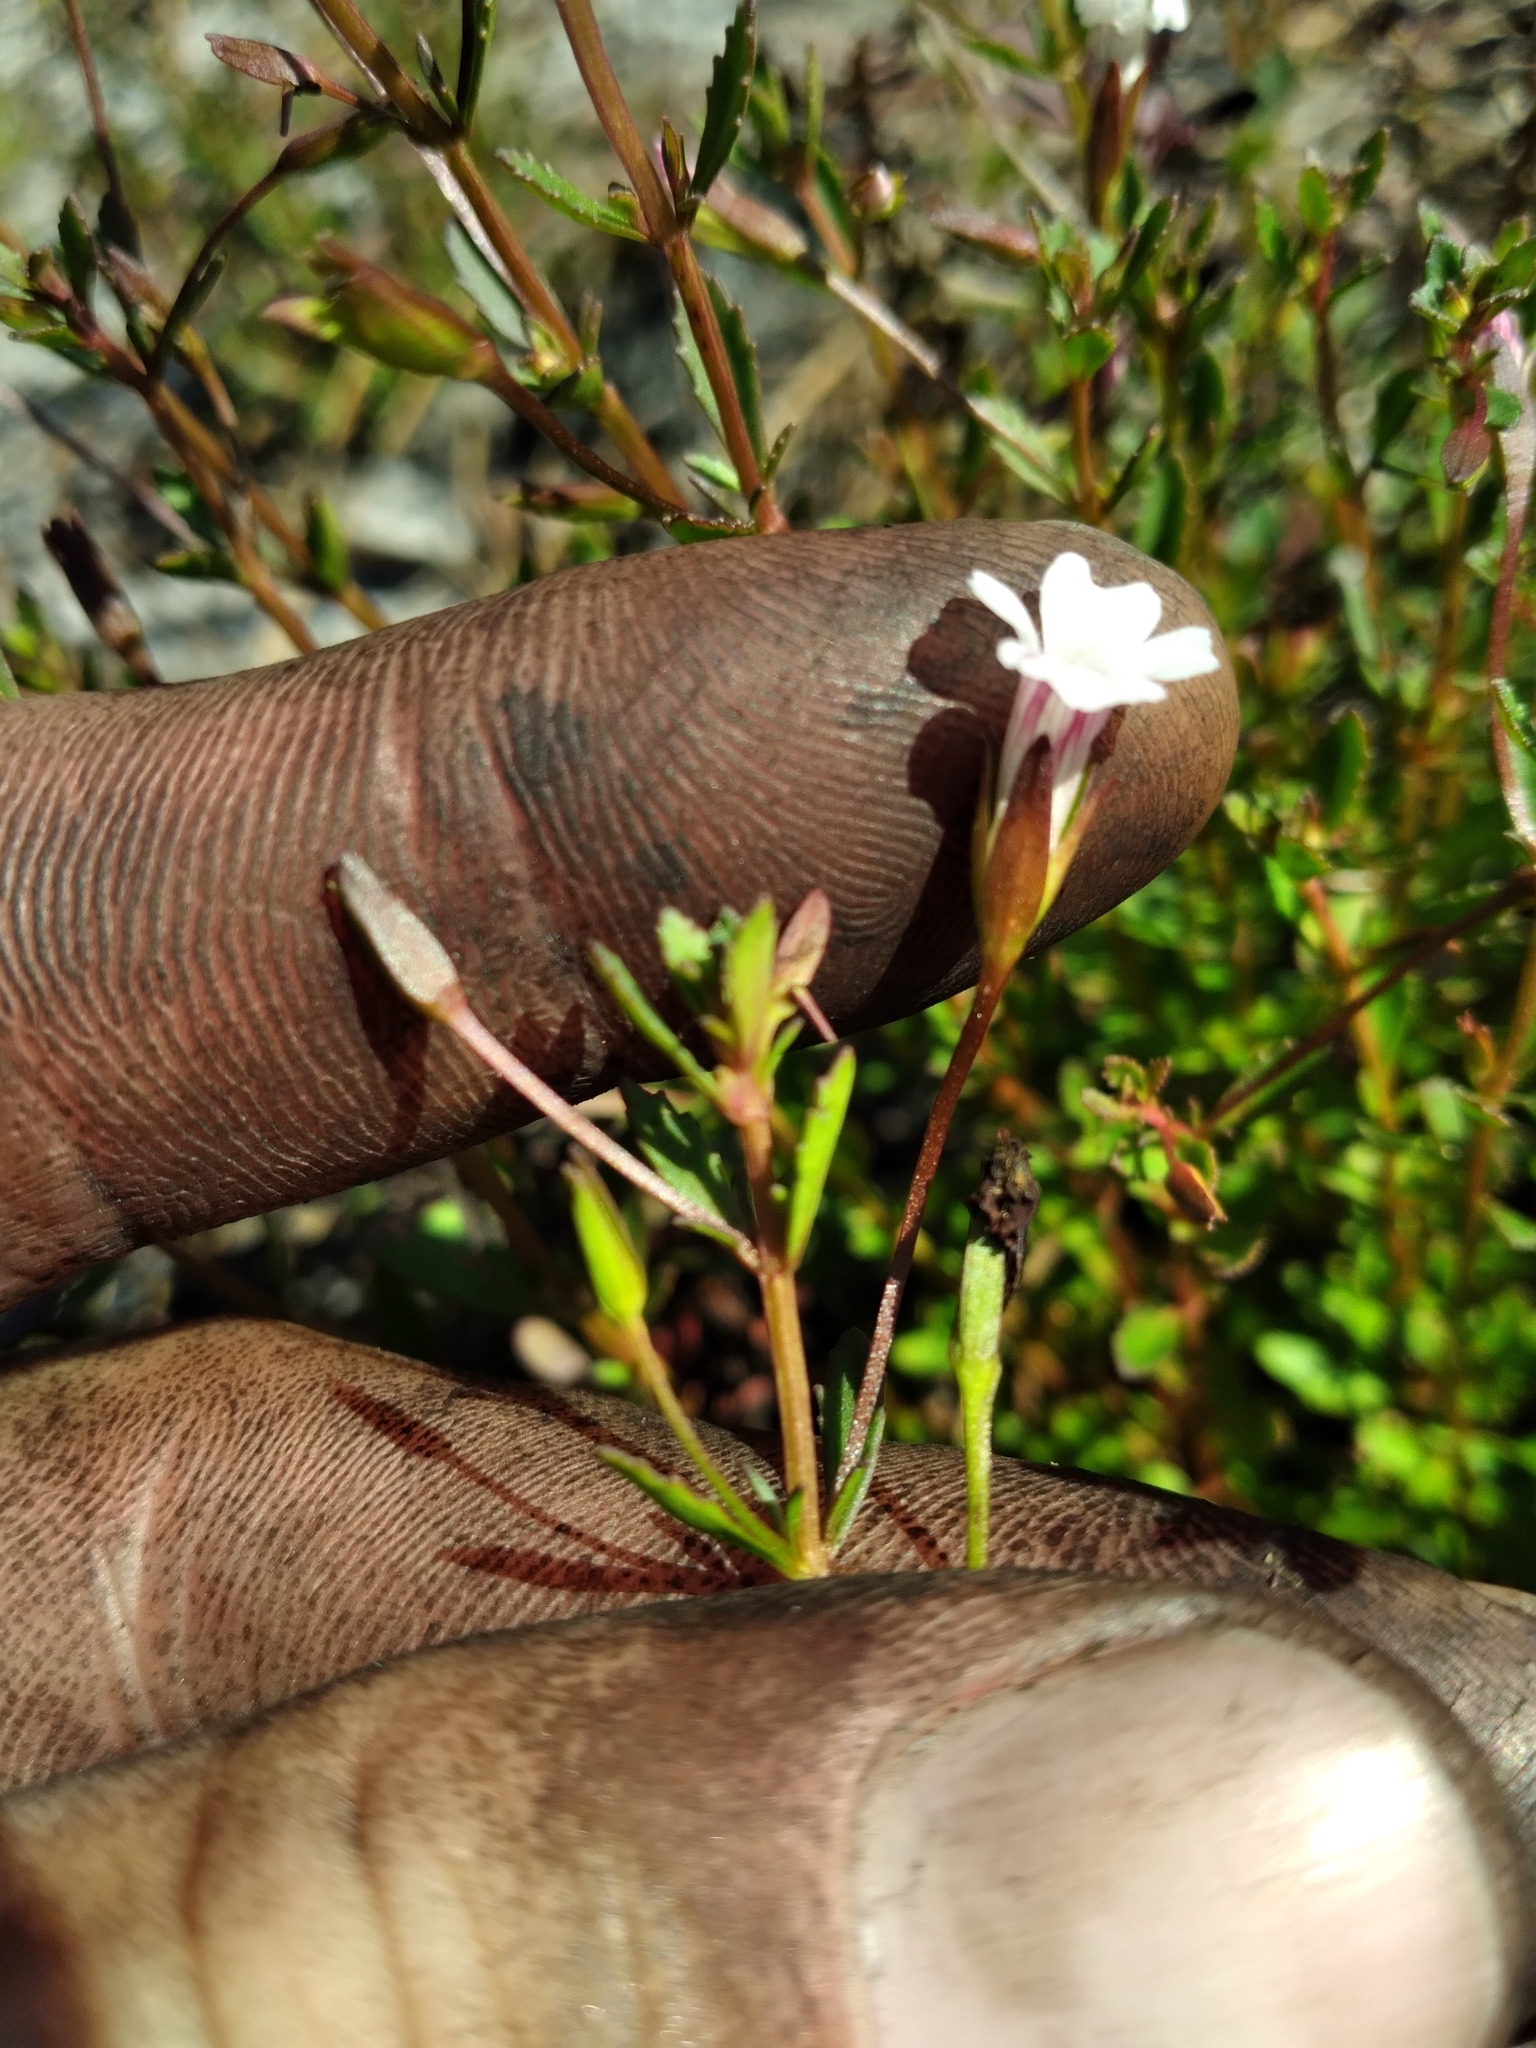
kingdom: Plantae
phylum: Tracheophyta
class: Magnoliopsida
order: Lamiales
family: Plantaginaceae
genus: Mecardonia
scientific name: Mecardonia acuminata
